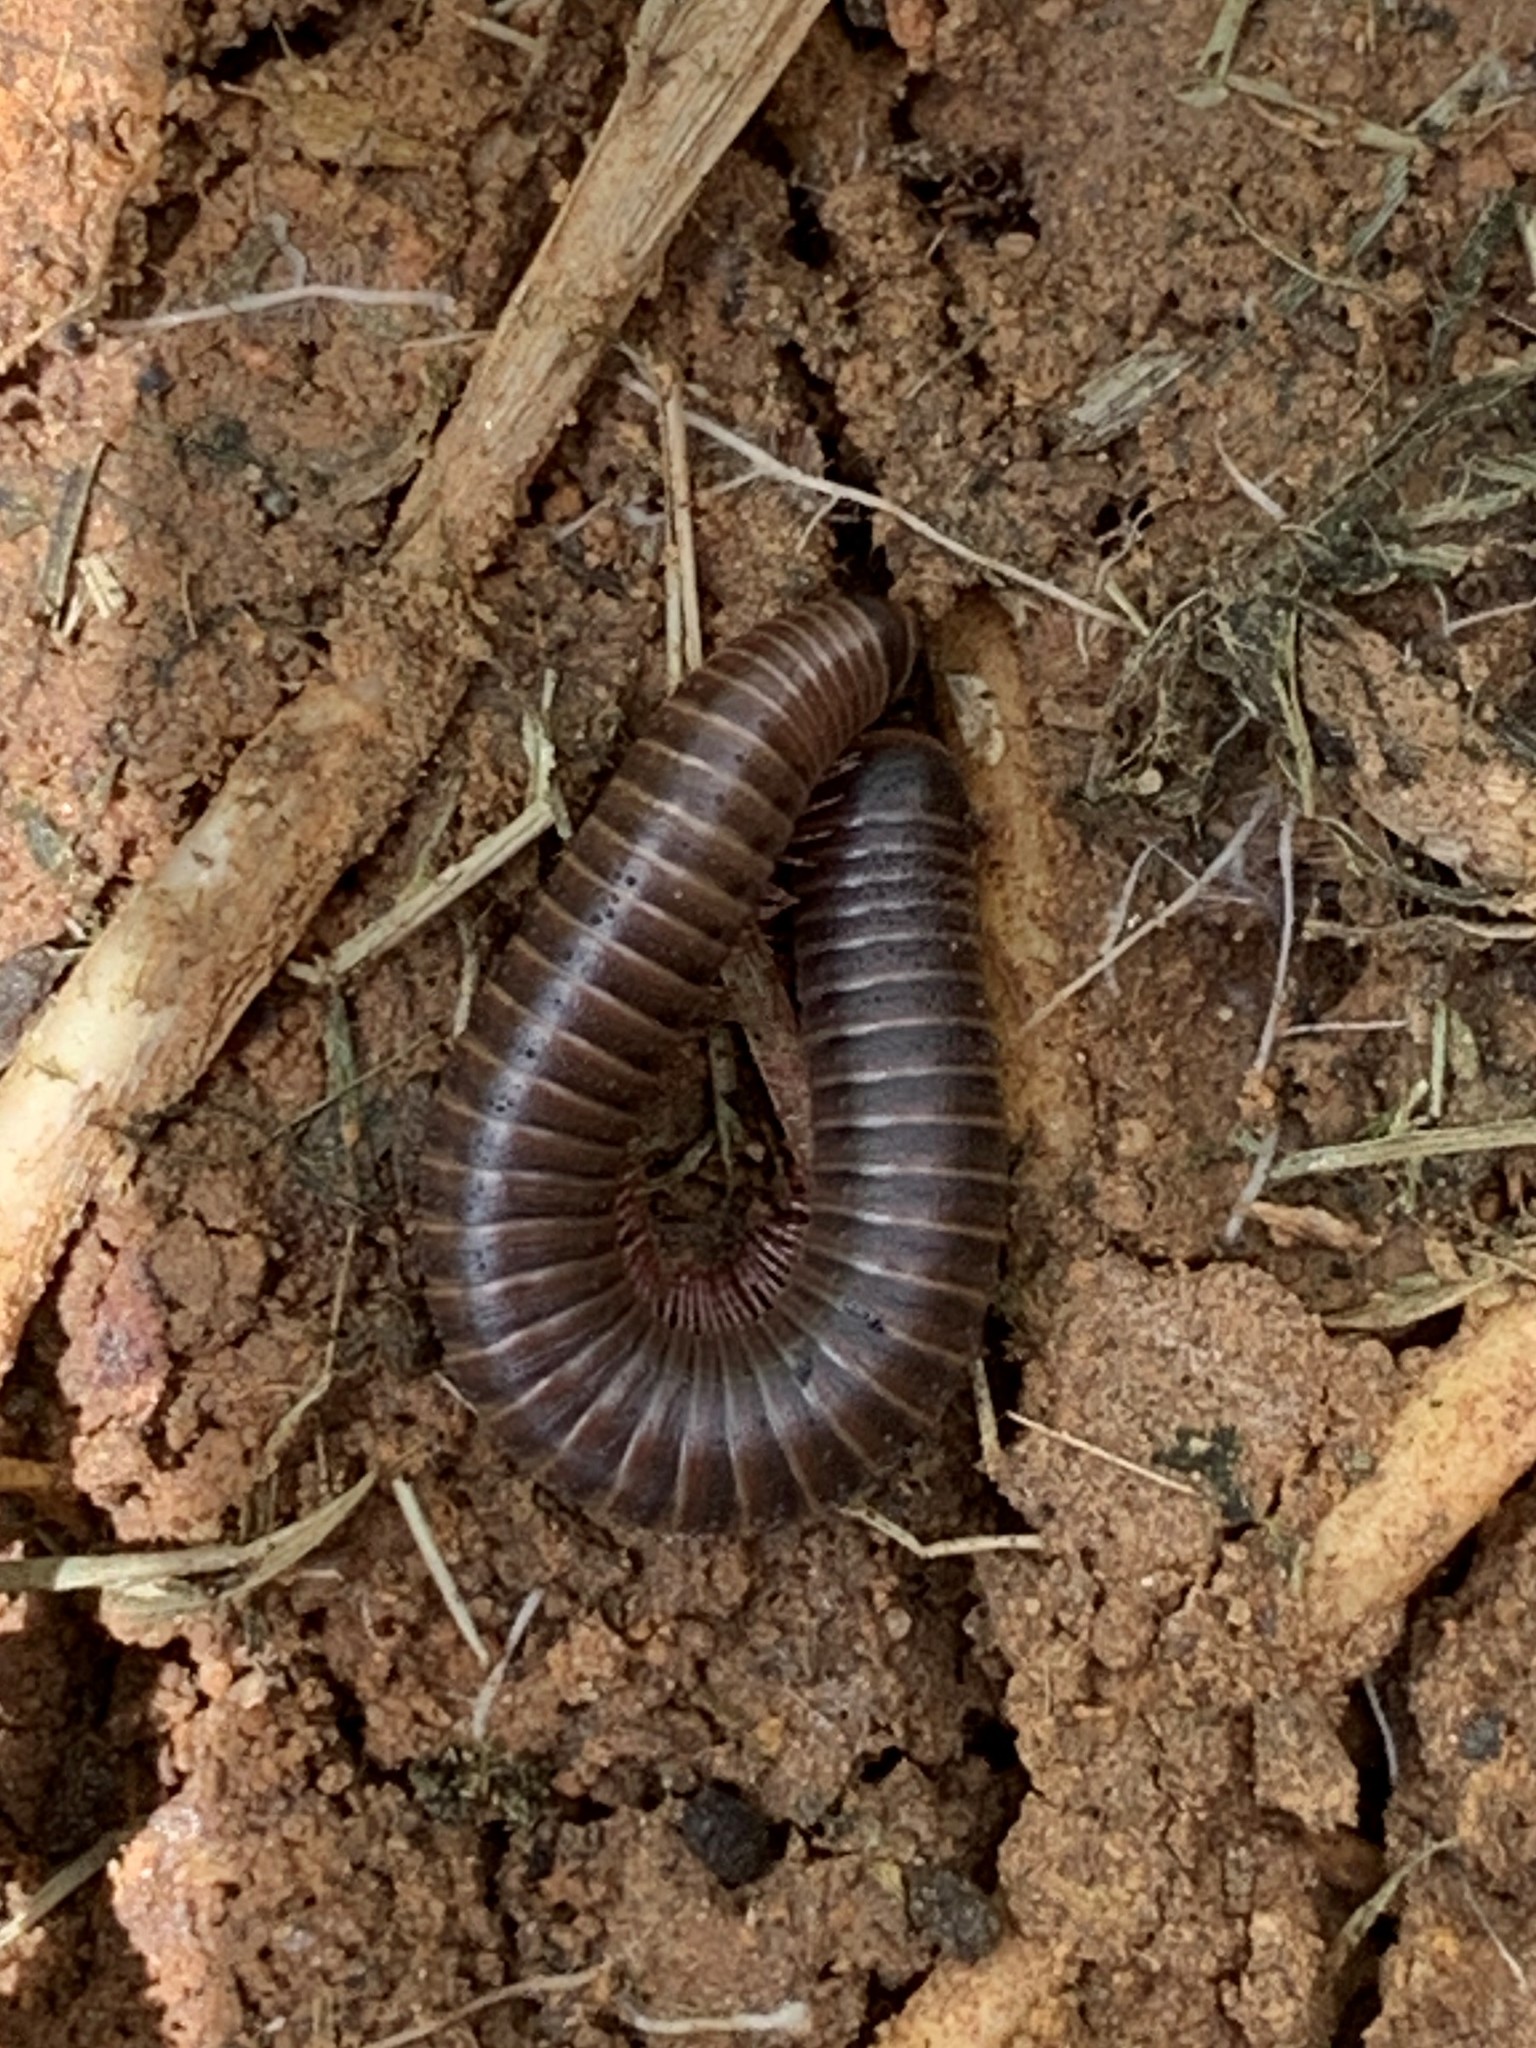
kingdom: Animalia
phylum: Arthropoda
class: Diplopoda
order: Spirobolida
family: Spirobolidae
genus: Narceus
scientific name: Narceus
